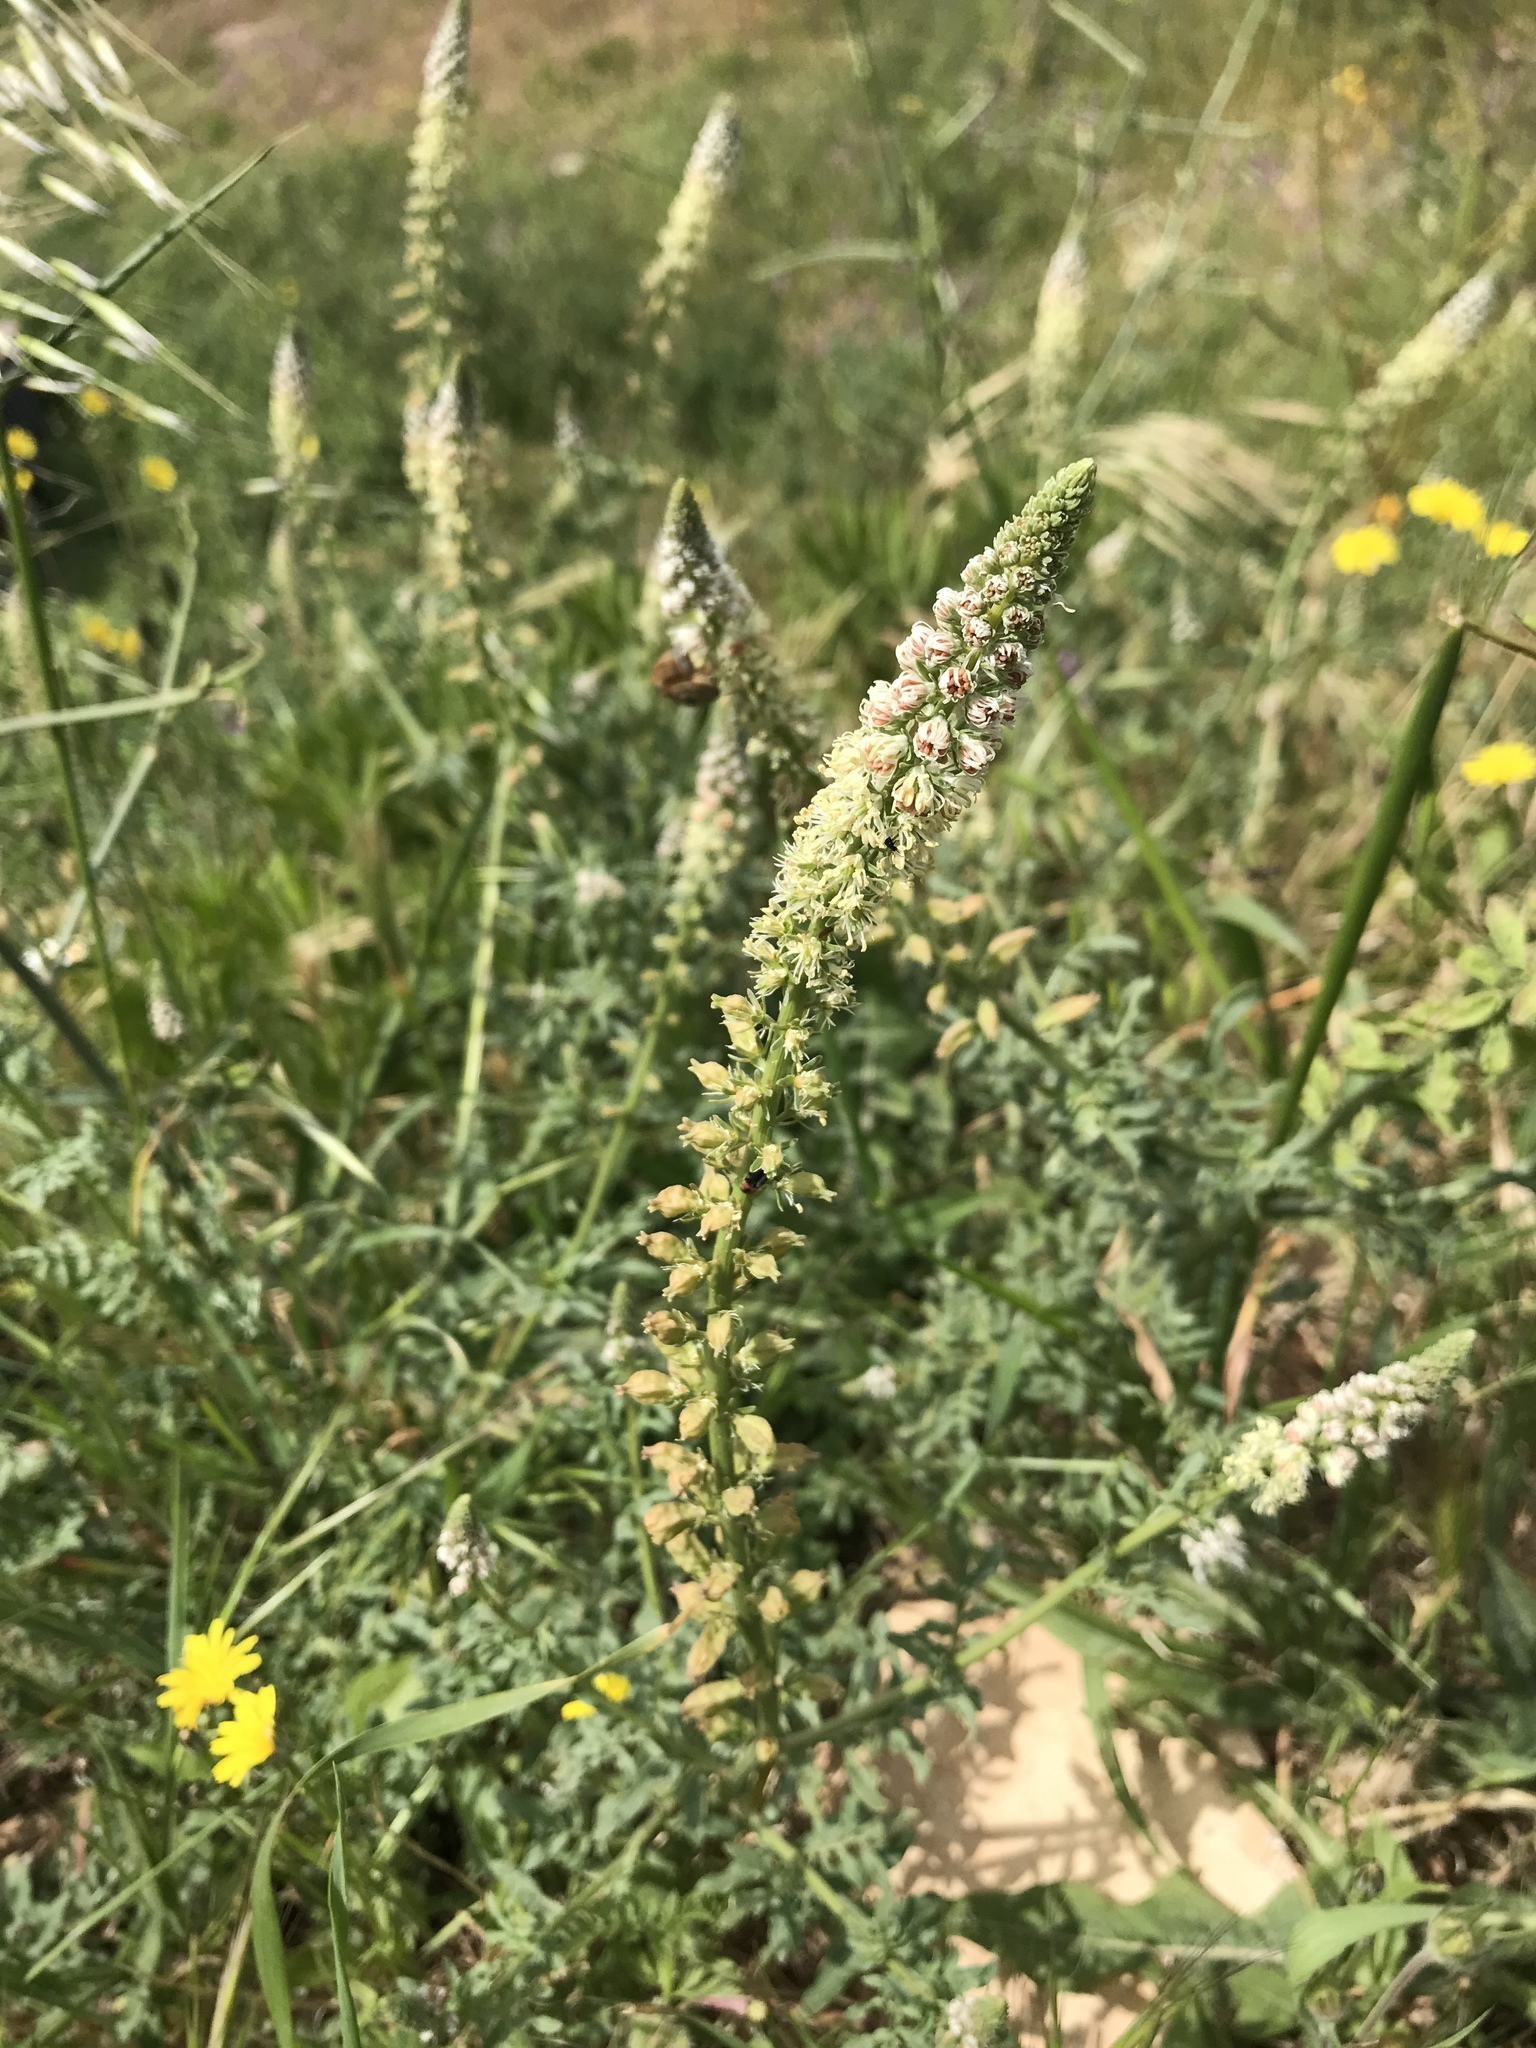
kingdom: Plantae
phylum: Tracheophyta
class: Magnoliopsida
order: Brassicales
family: Resedaceae
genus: Reseda
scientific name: Reseda alba
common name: White mignonette
